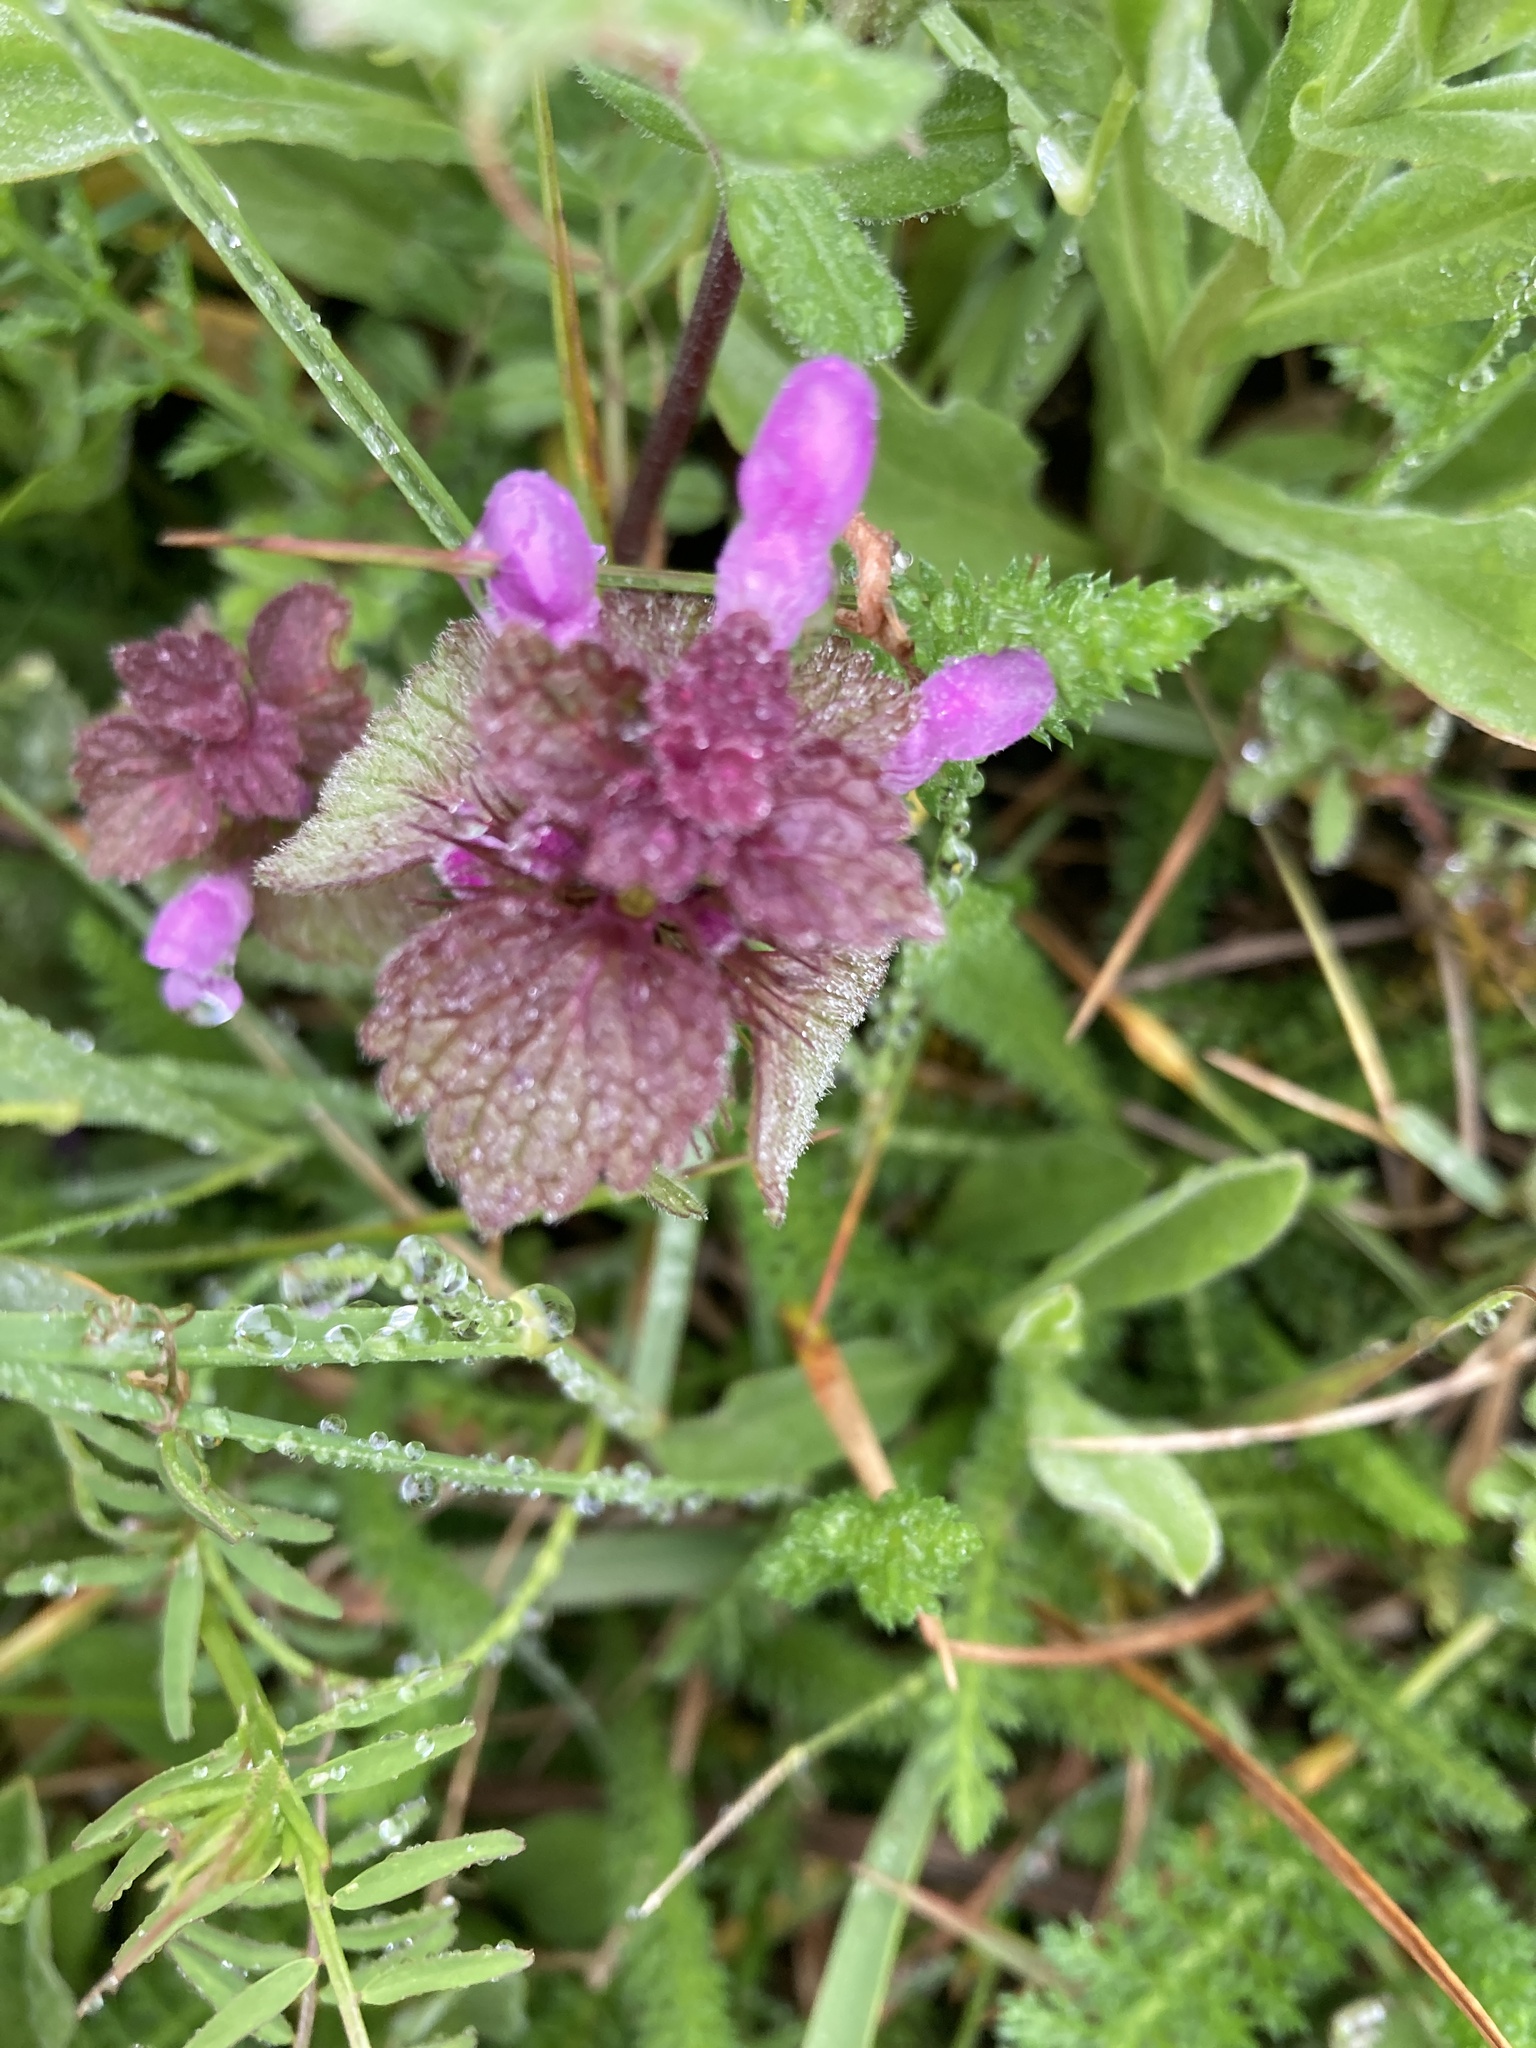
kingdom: Plantae
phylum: Tracheophyta
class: Magnoliopsida
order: Lamiales
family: Lamiaceae
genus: Lamium
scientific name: Lamium purpureum
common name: Red dead-nettle
